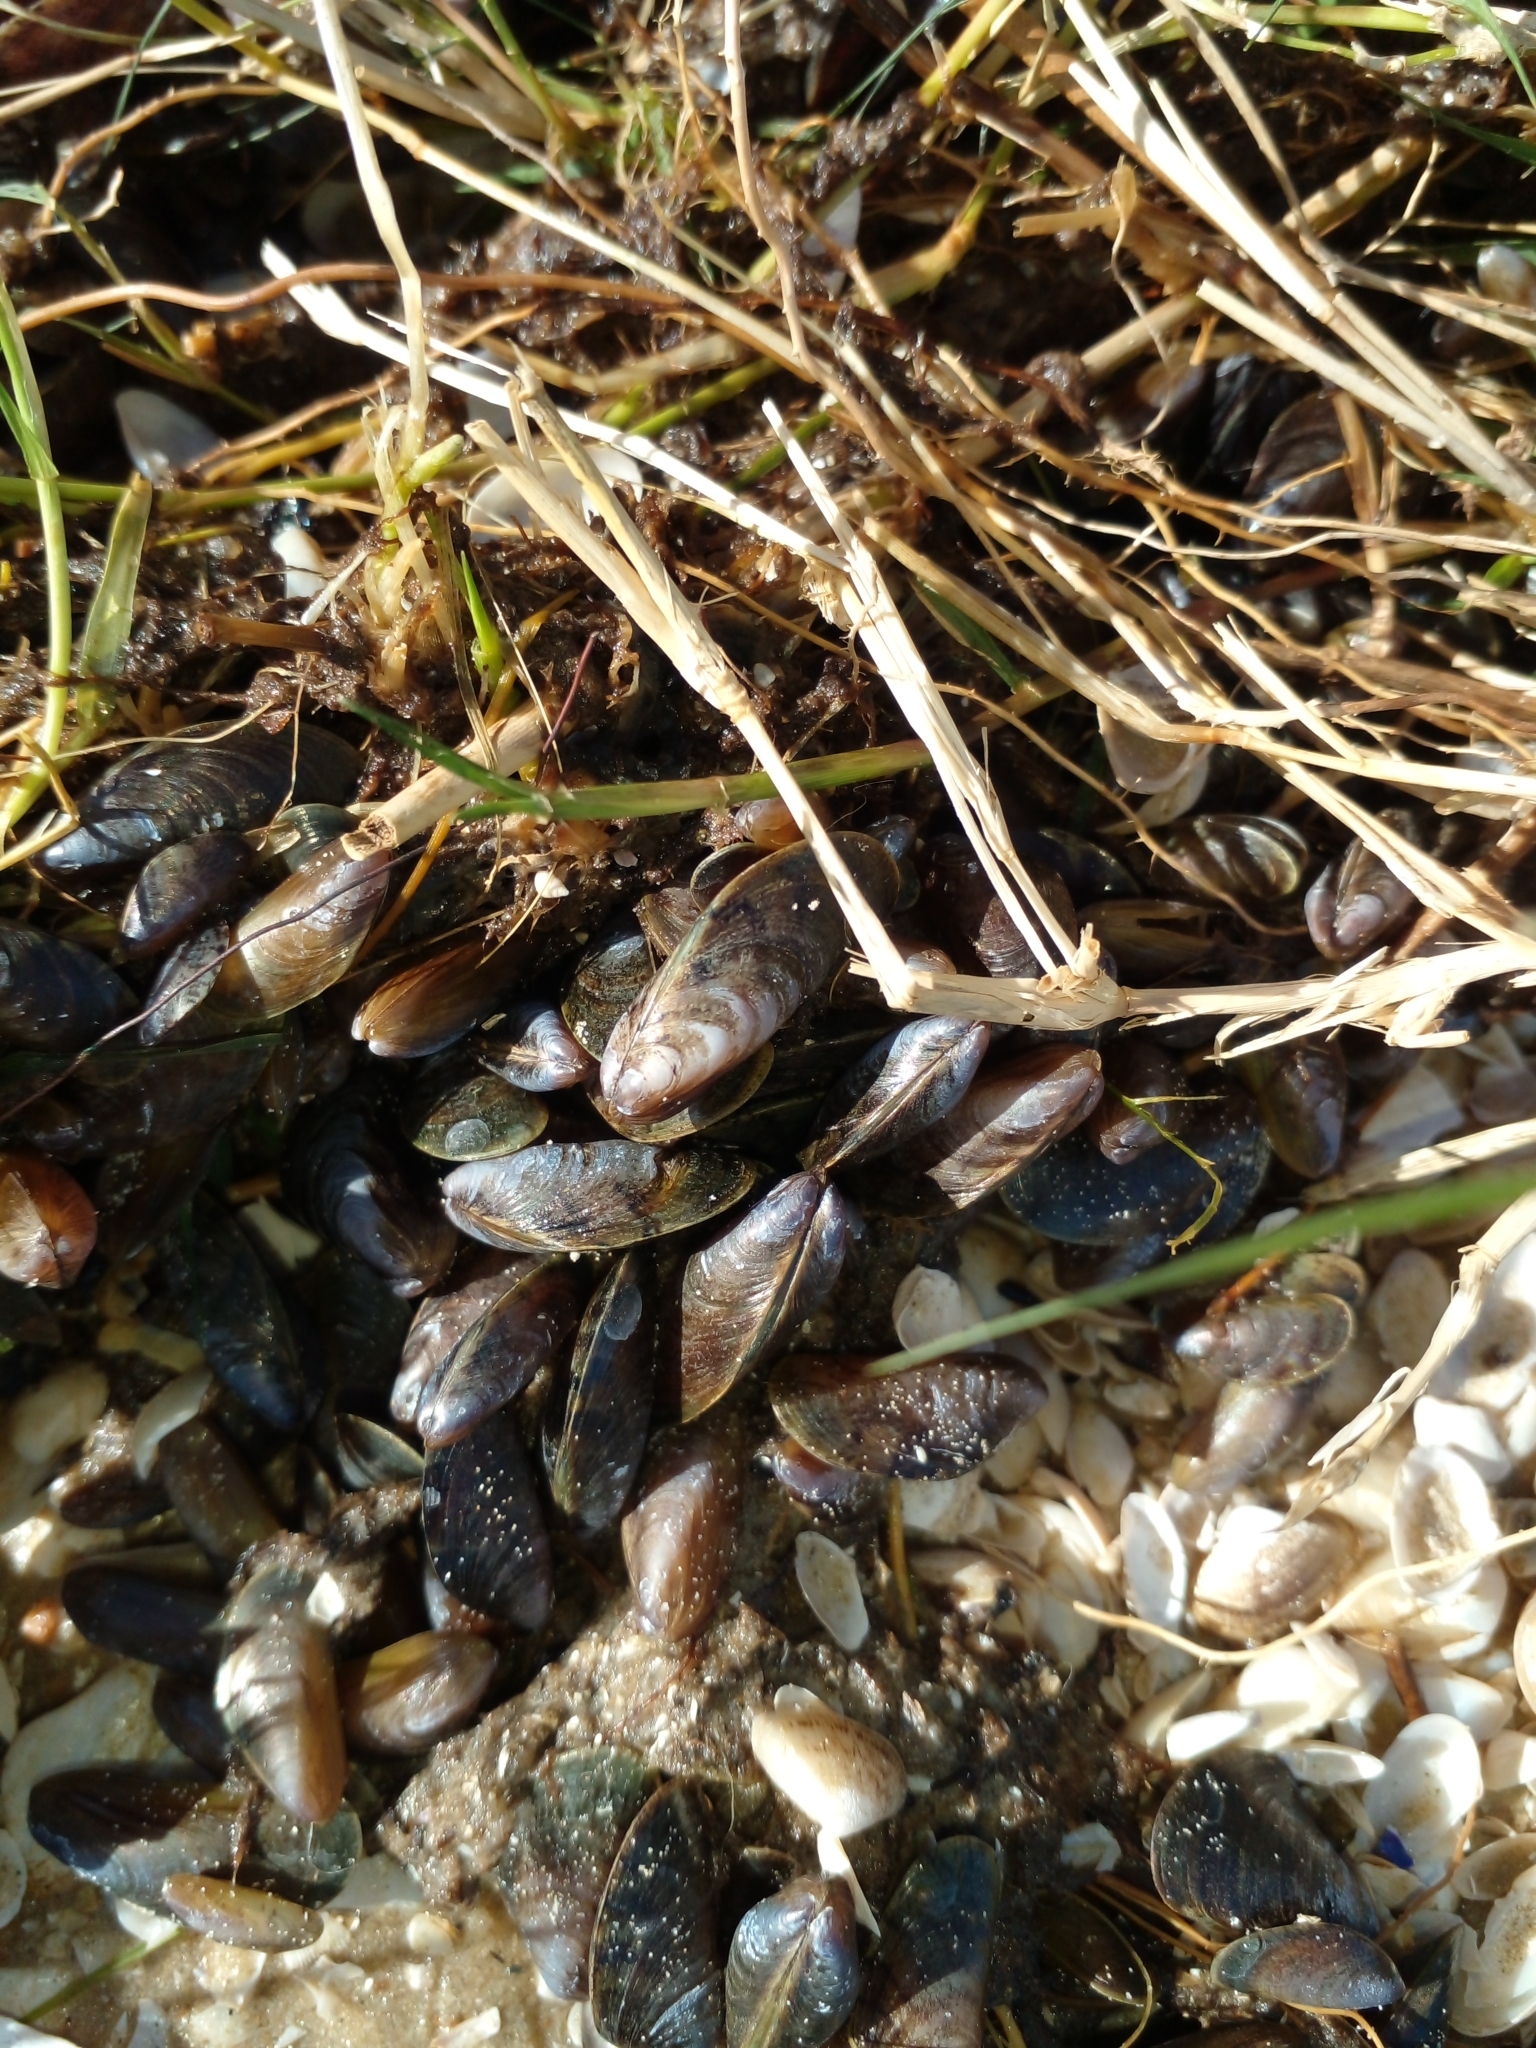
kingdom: Animalia
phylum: Mollusca
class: Bivalvia
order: Mytilida
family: Mytilidae
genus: Limnoperna
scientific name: Limnoperna fortunei
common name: Golden mussel
